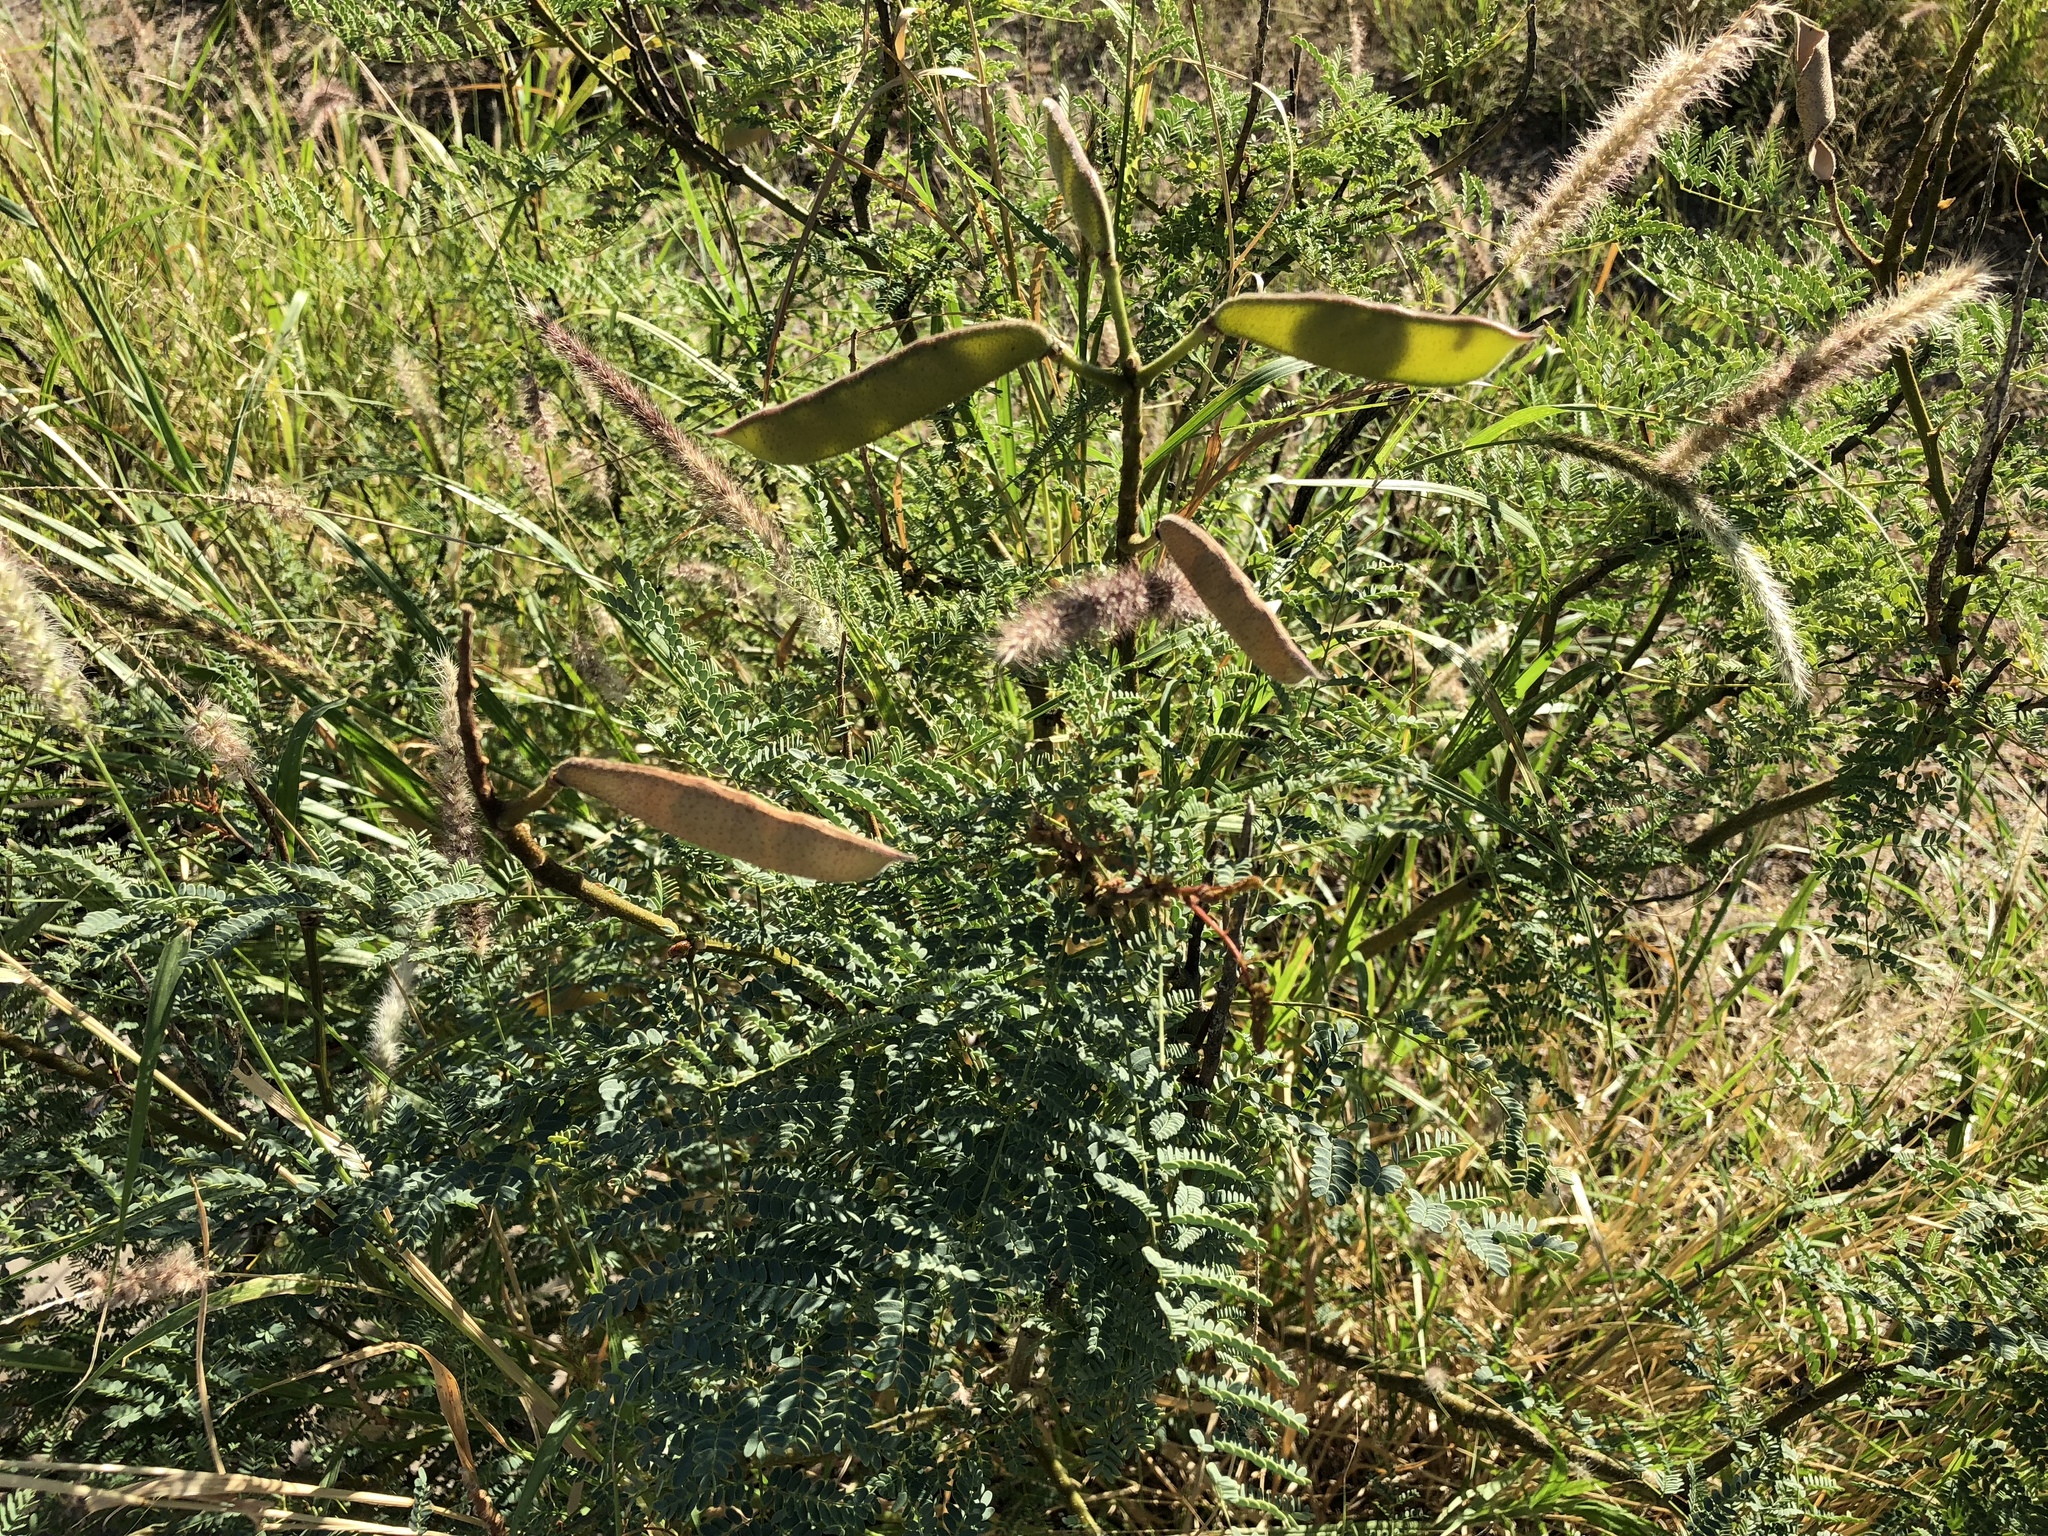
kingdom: Plantae
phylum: Tracheophyta
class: Magnoliopsida
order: Fabales
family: Fabaceae
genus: Erythrostemon
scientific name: Erythrostemon gilliesii
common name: Bird-of-paradise shrub
